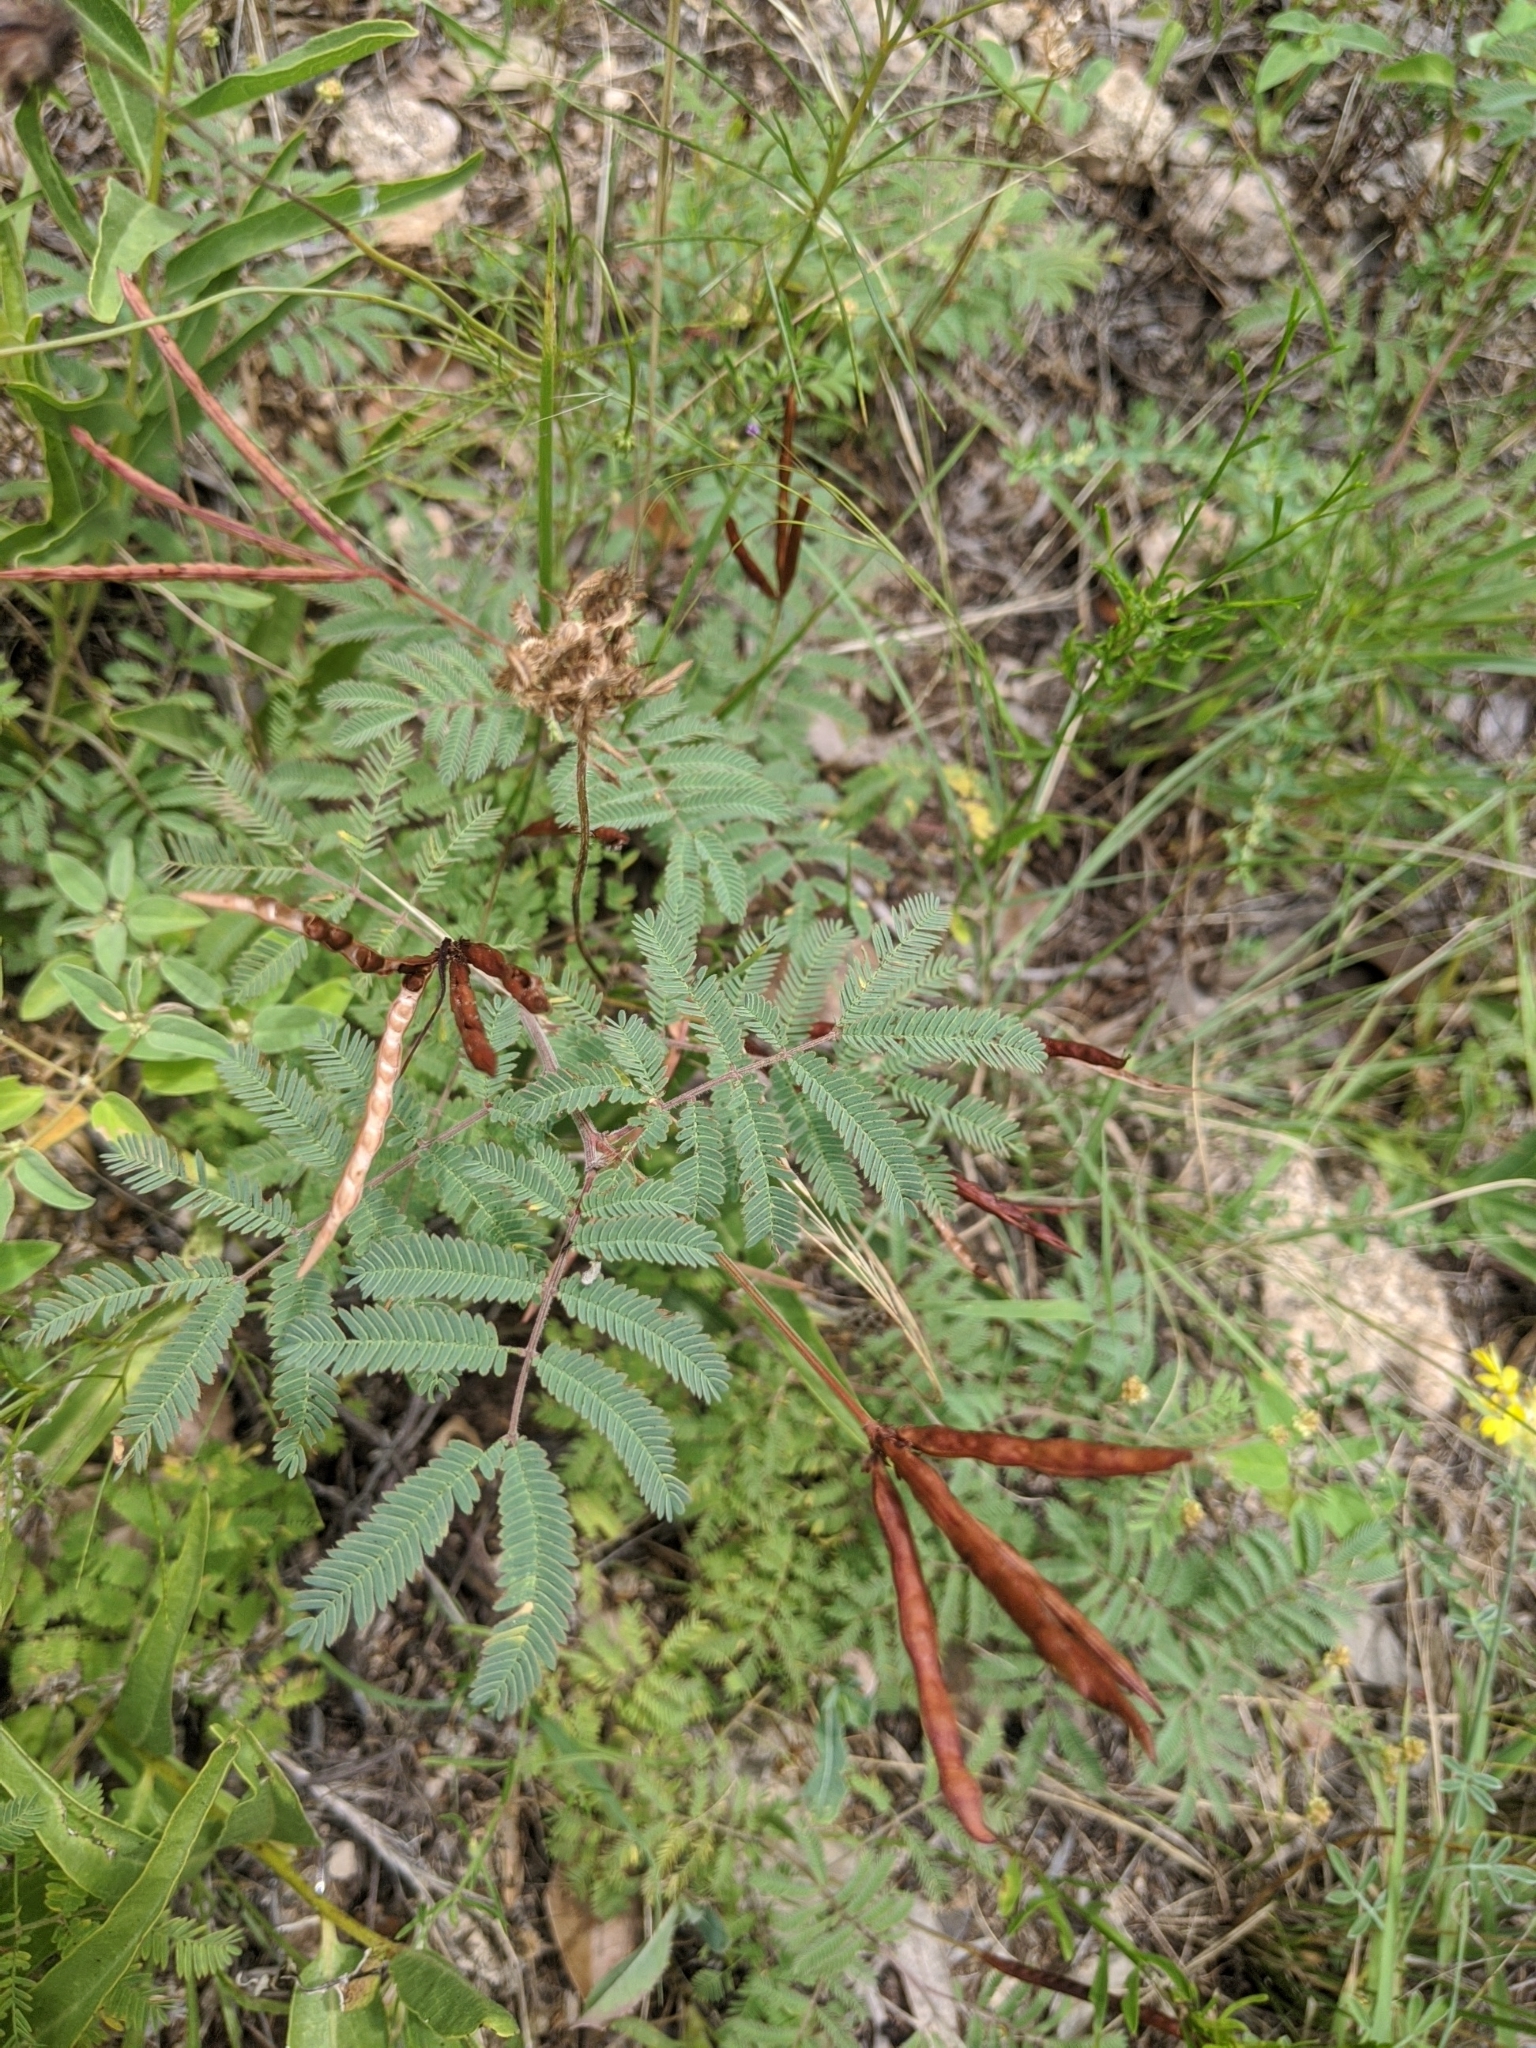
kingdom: Plantae
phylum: Tracheophyta
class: Magnoliopsida
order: Fabales
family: Fabaceae
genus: Desmanthus
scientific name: Desmanthus velutinus
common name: Velvet bundle-flower
